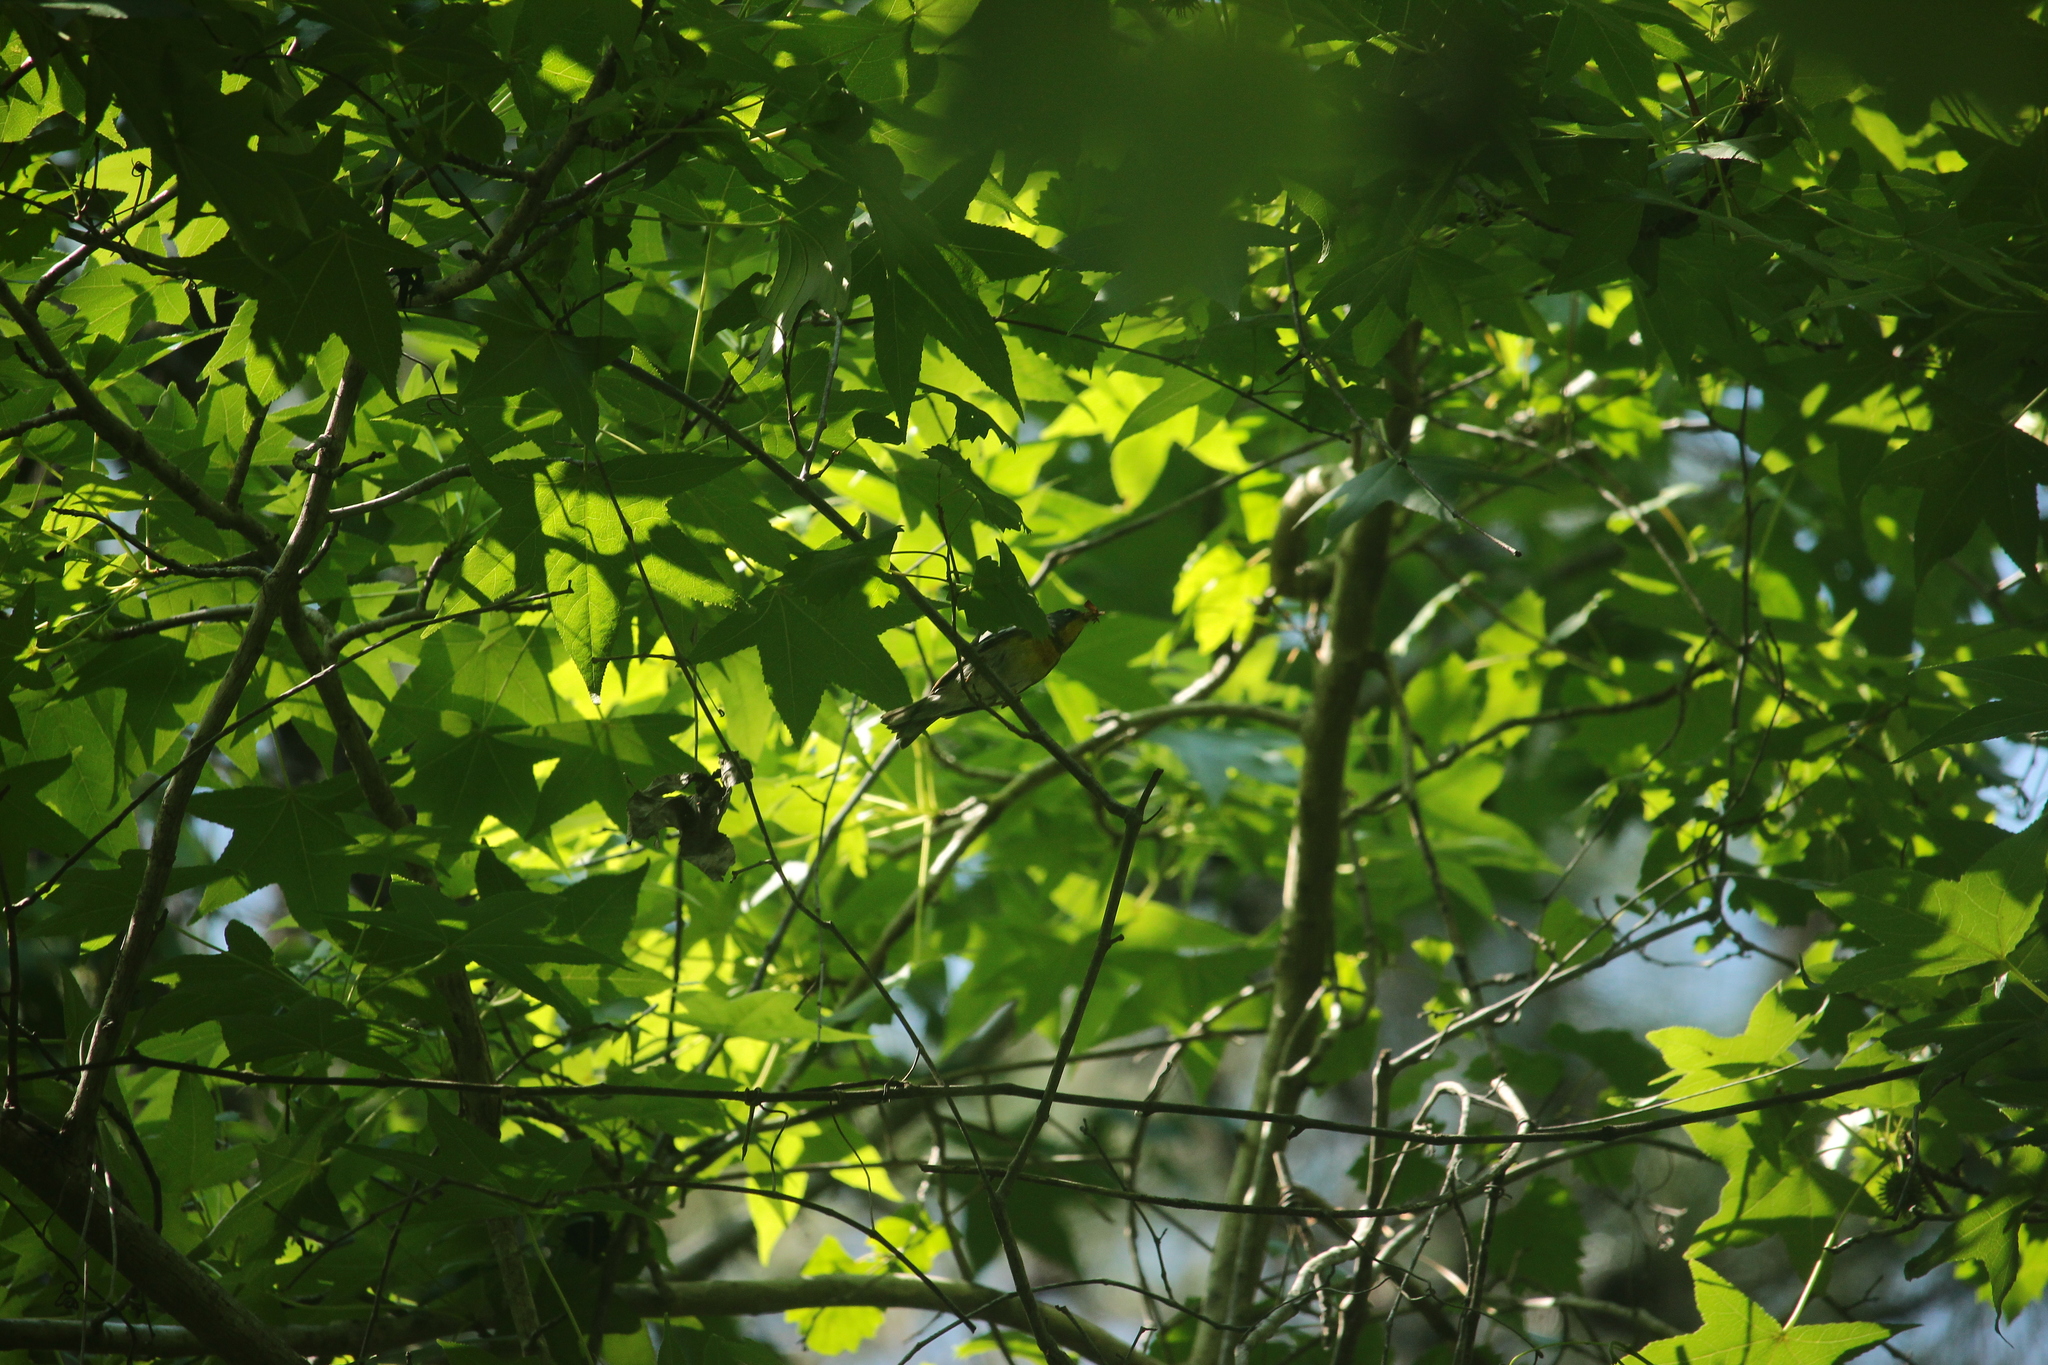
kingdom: Animalia
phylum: Chordata
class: Aves
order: Passeriformes
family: Parulidae
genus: Setophaga
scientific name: Setophaga americana
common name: Northern parula
